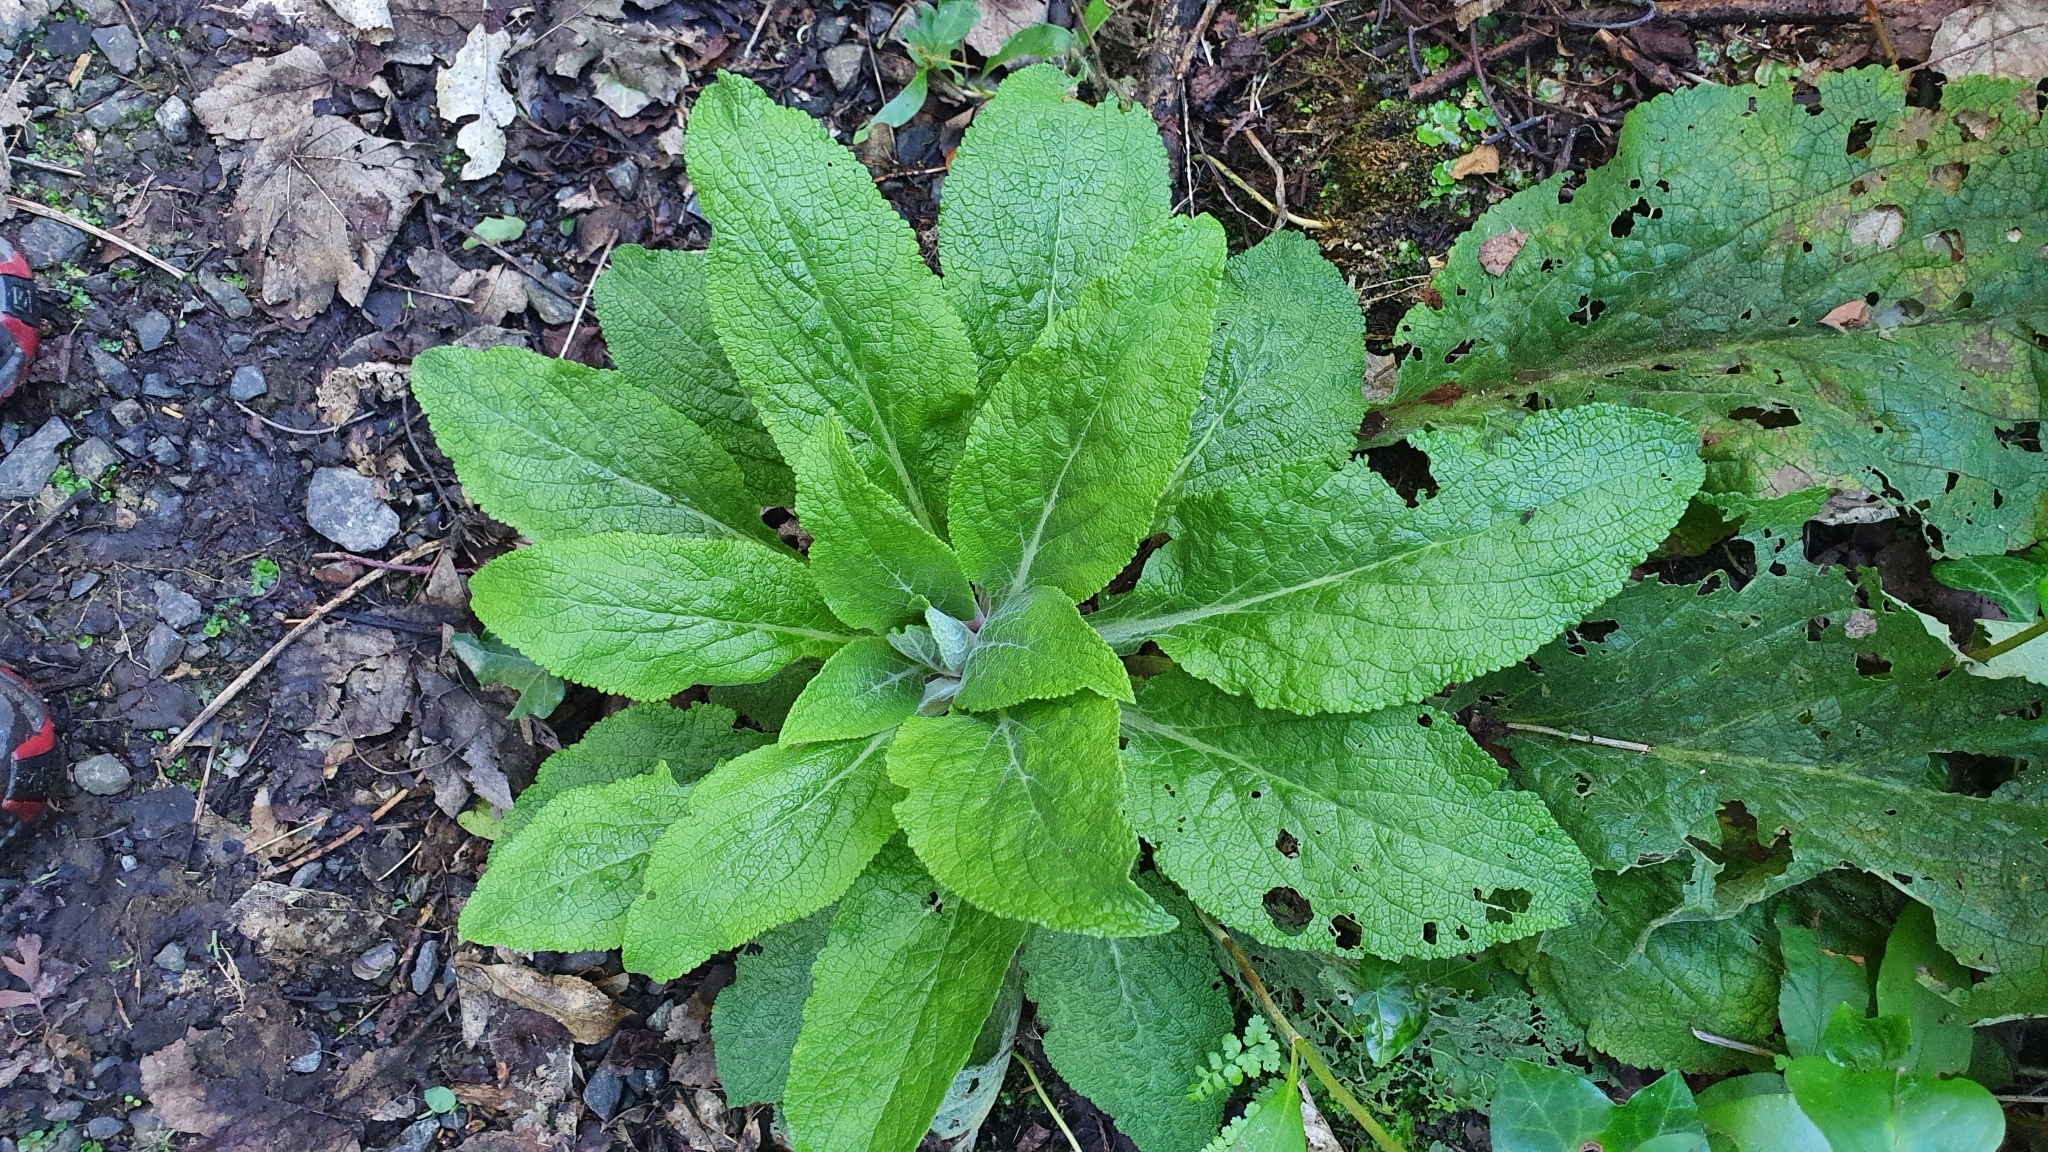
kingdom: Plantae
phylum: Tracheophyta
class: Magnoliopsida
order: Lamiales
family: Plantaginaceae
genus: Digitalis
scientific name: Digitalis purpurea
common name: Foxglove
